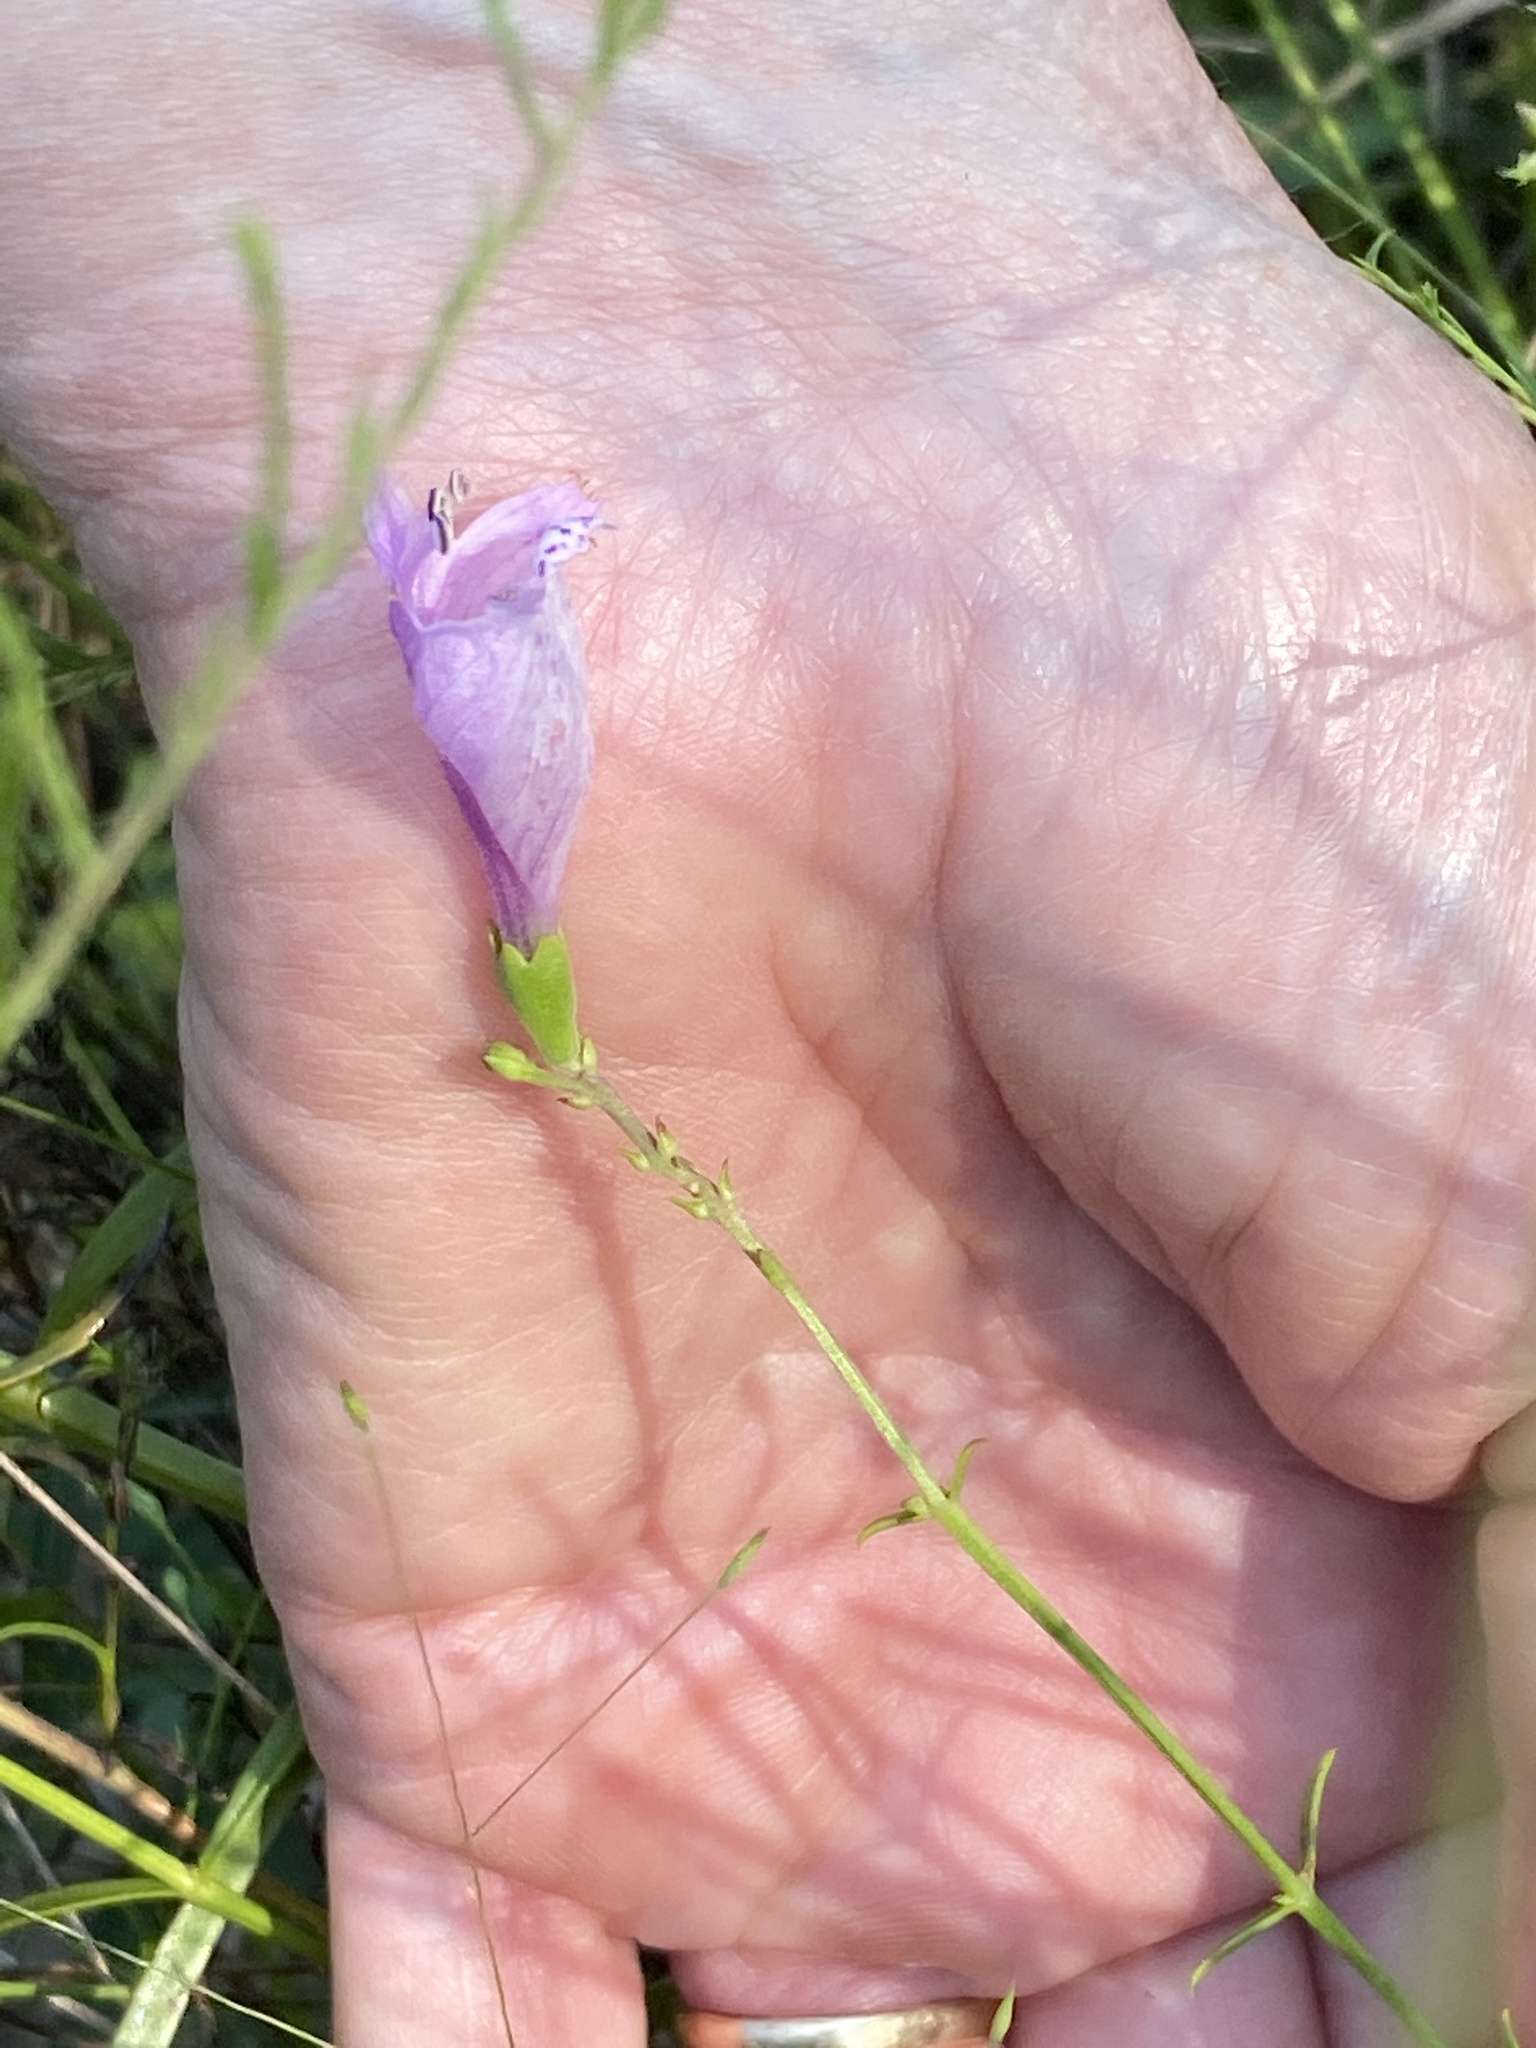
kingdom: Plantae
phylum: Tracheophyta
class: Magnoliopsida
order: Lamiales
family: Lamiaceae
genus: Physostegia
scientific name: Physostegia virginiana
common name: Obedient-plant
